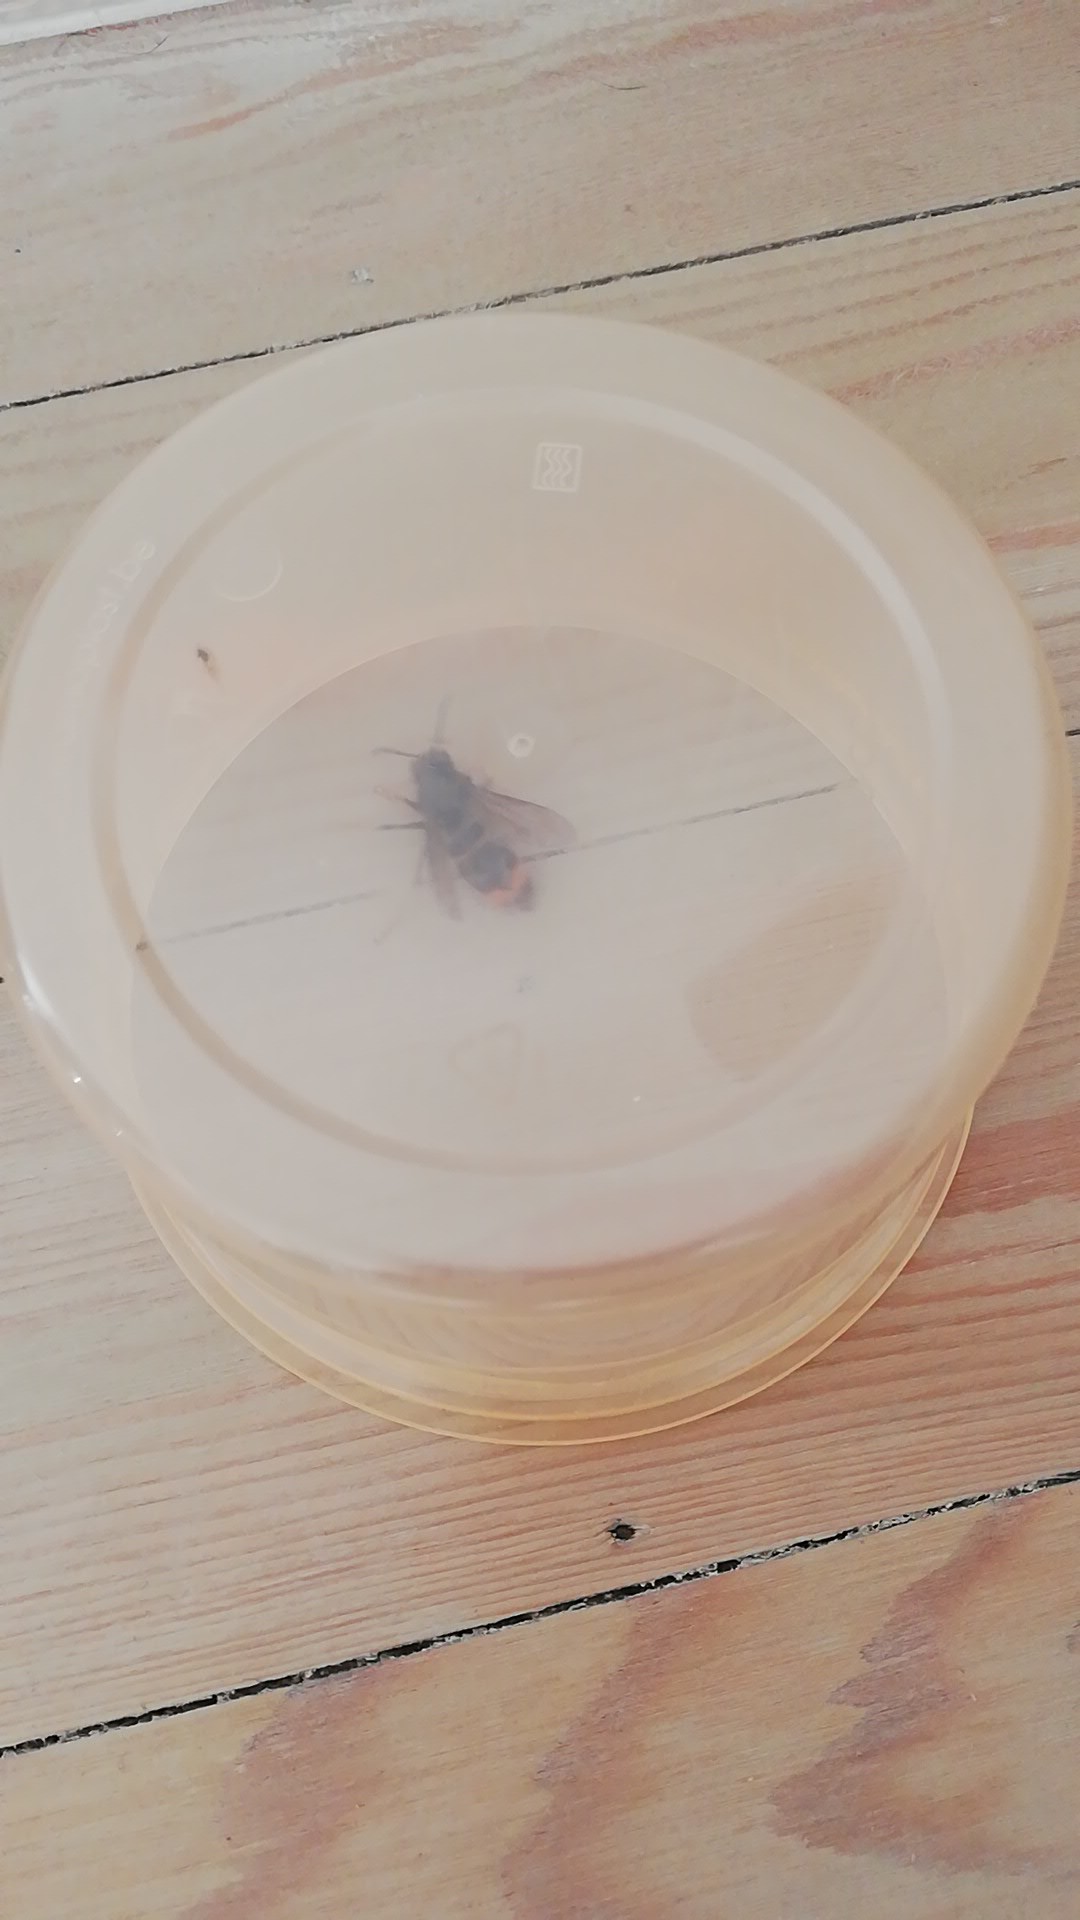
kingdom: Animalia
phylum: Arthropoda
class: Insecta
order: Hymenoptera
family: Vespidae
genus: Vespa
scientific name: Vespa velutina
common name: Asian hornet
